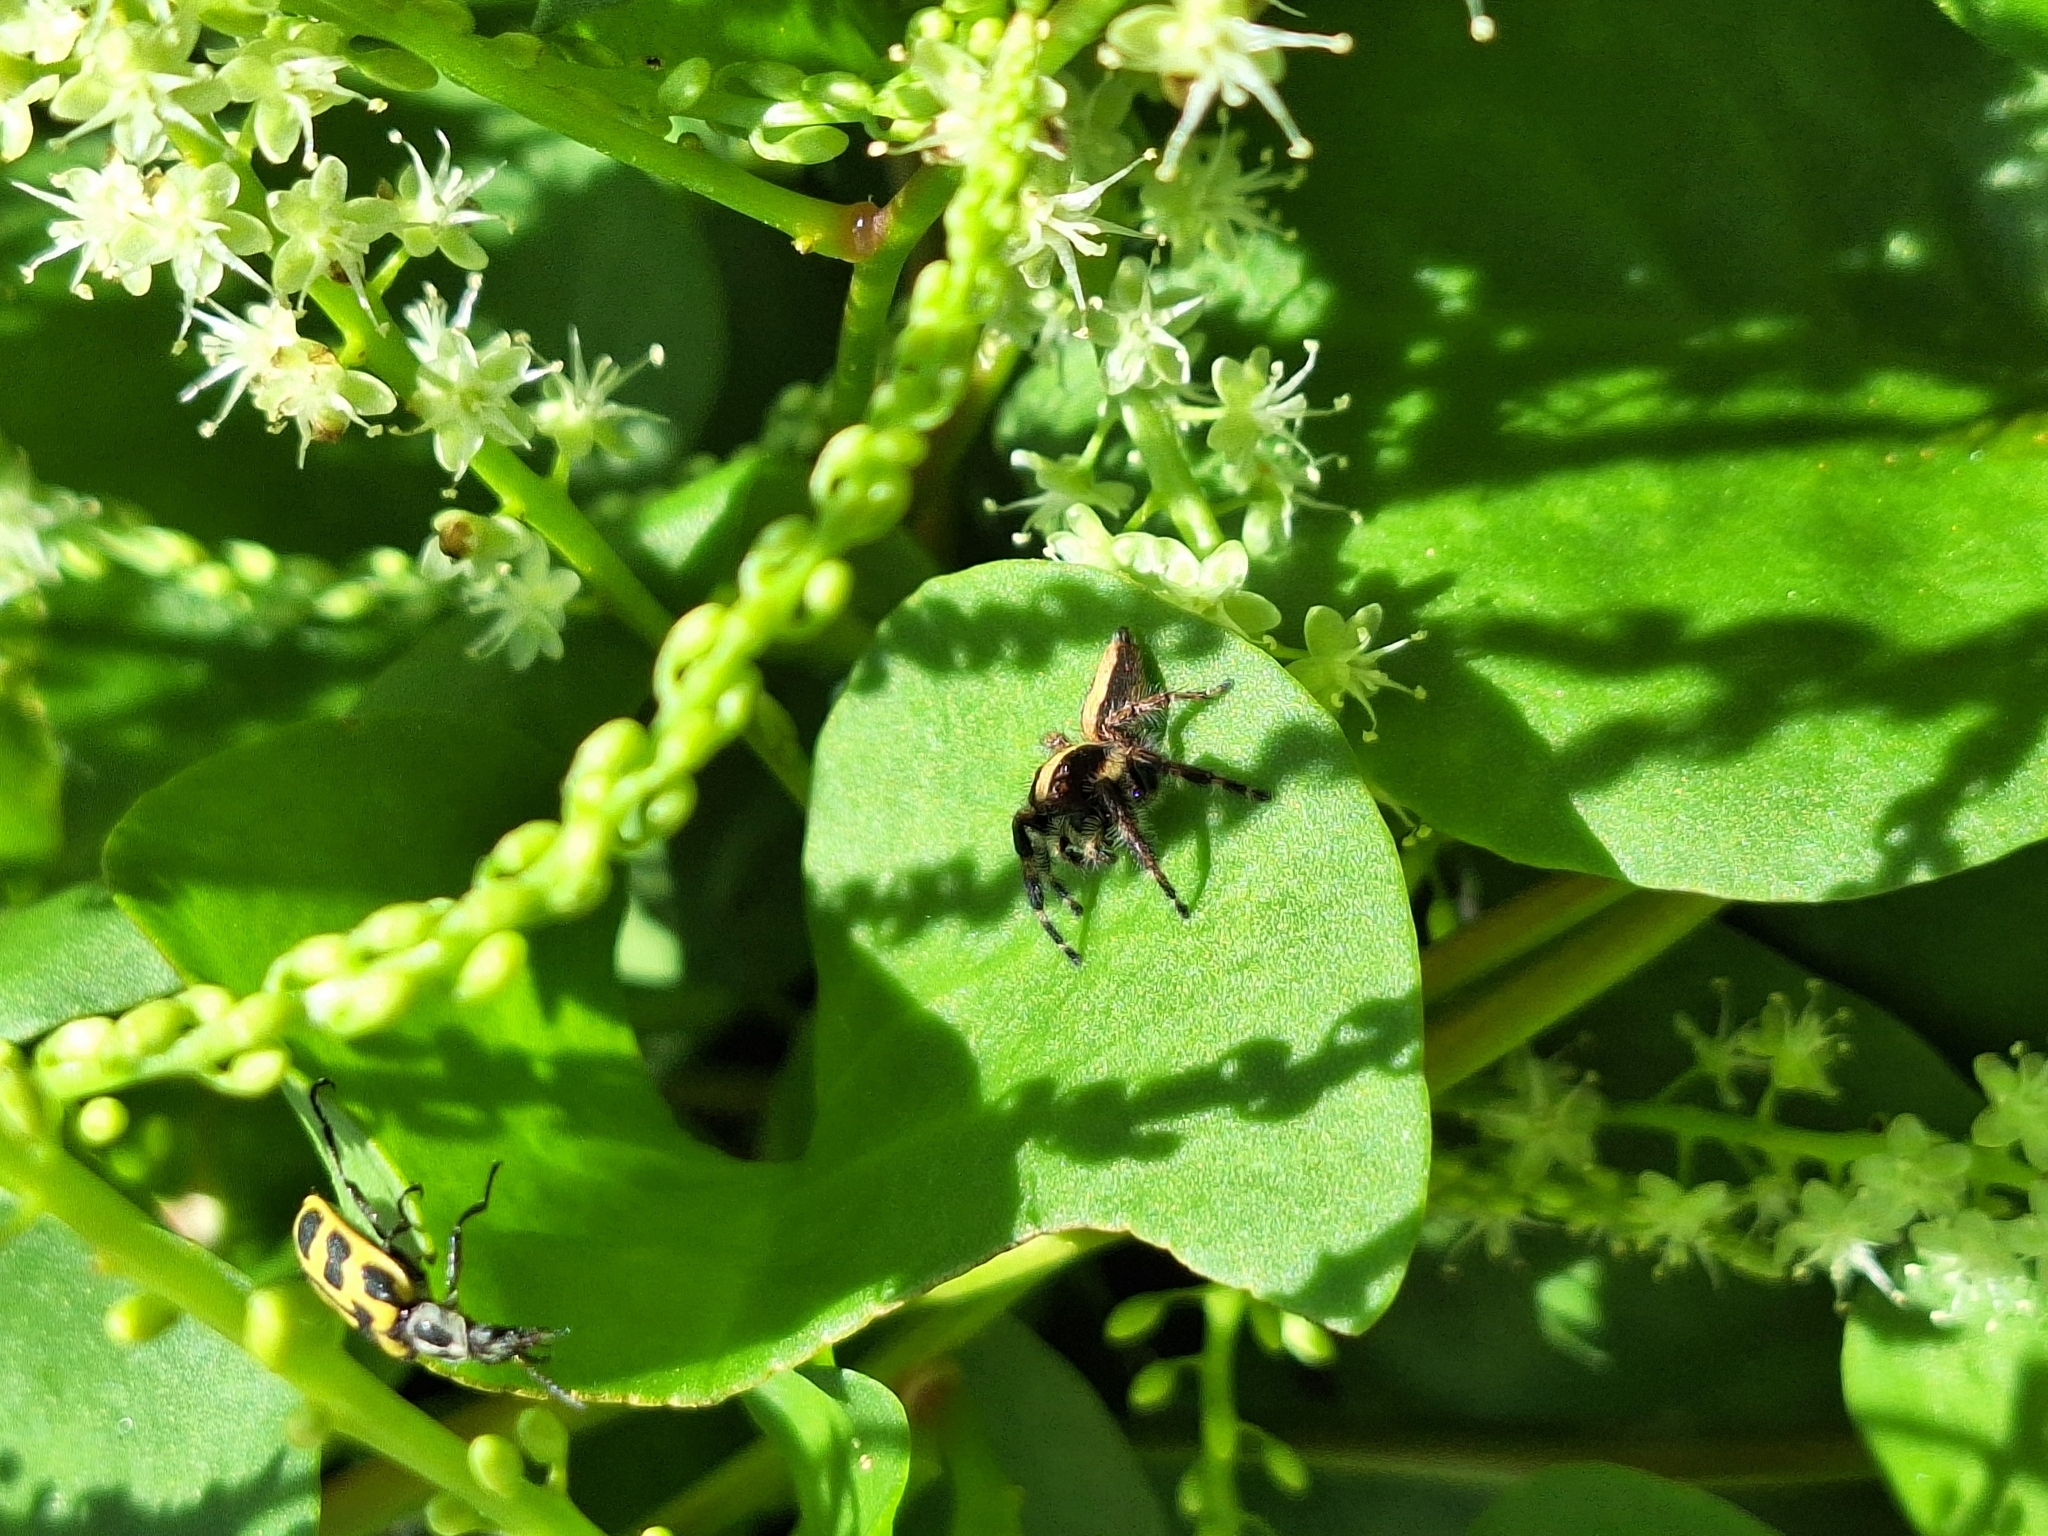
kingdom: Animalia
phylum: Arthropoda
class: Arachnida
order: Araneae
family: Salticidae
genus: Megafreya
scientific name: Megafreya sutrix
